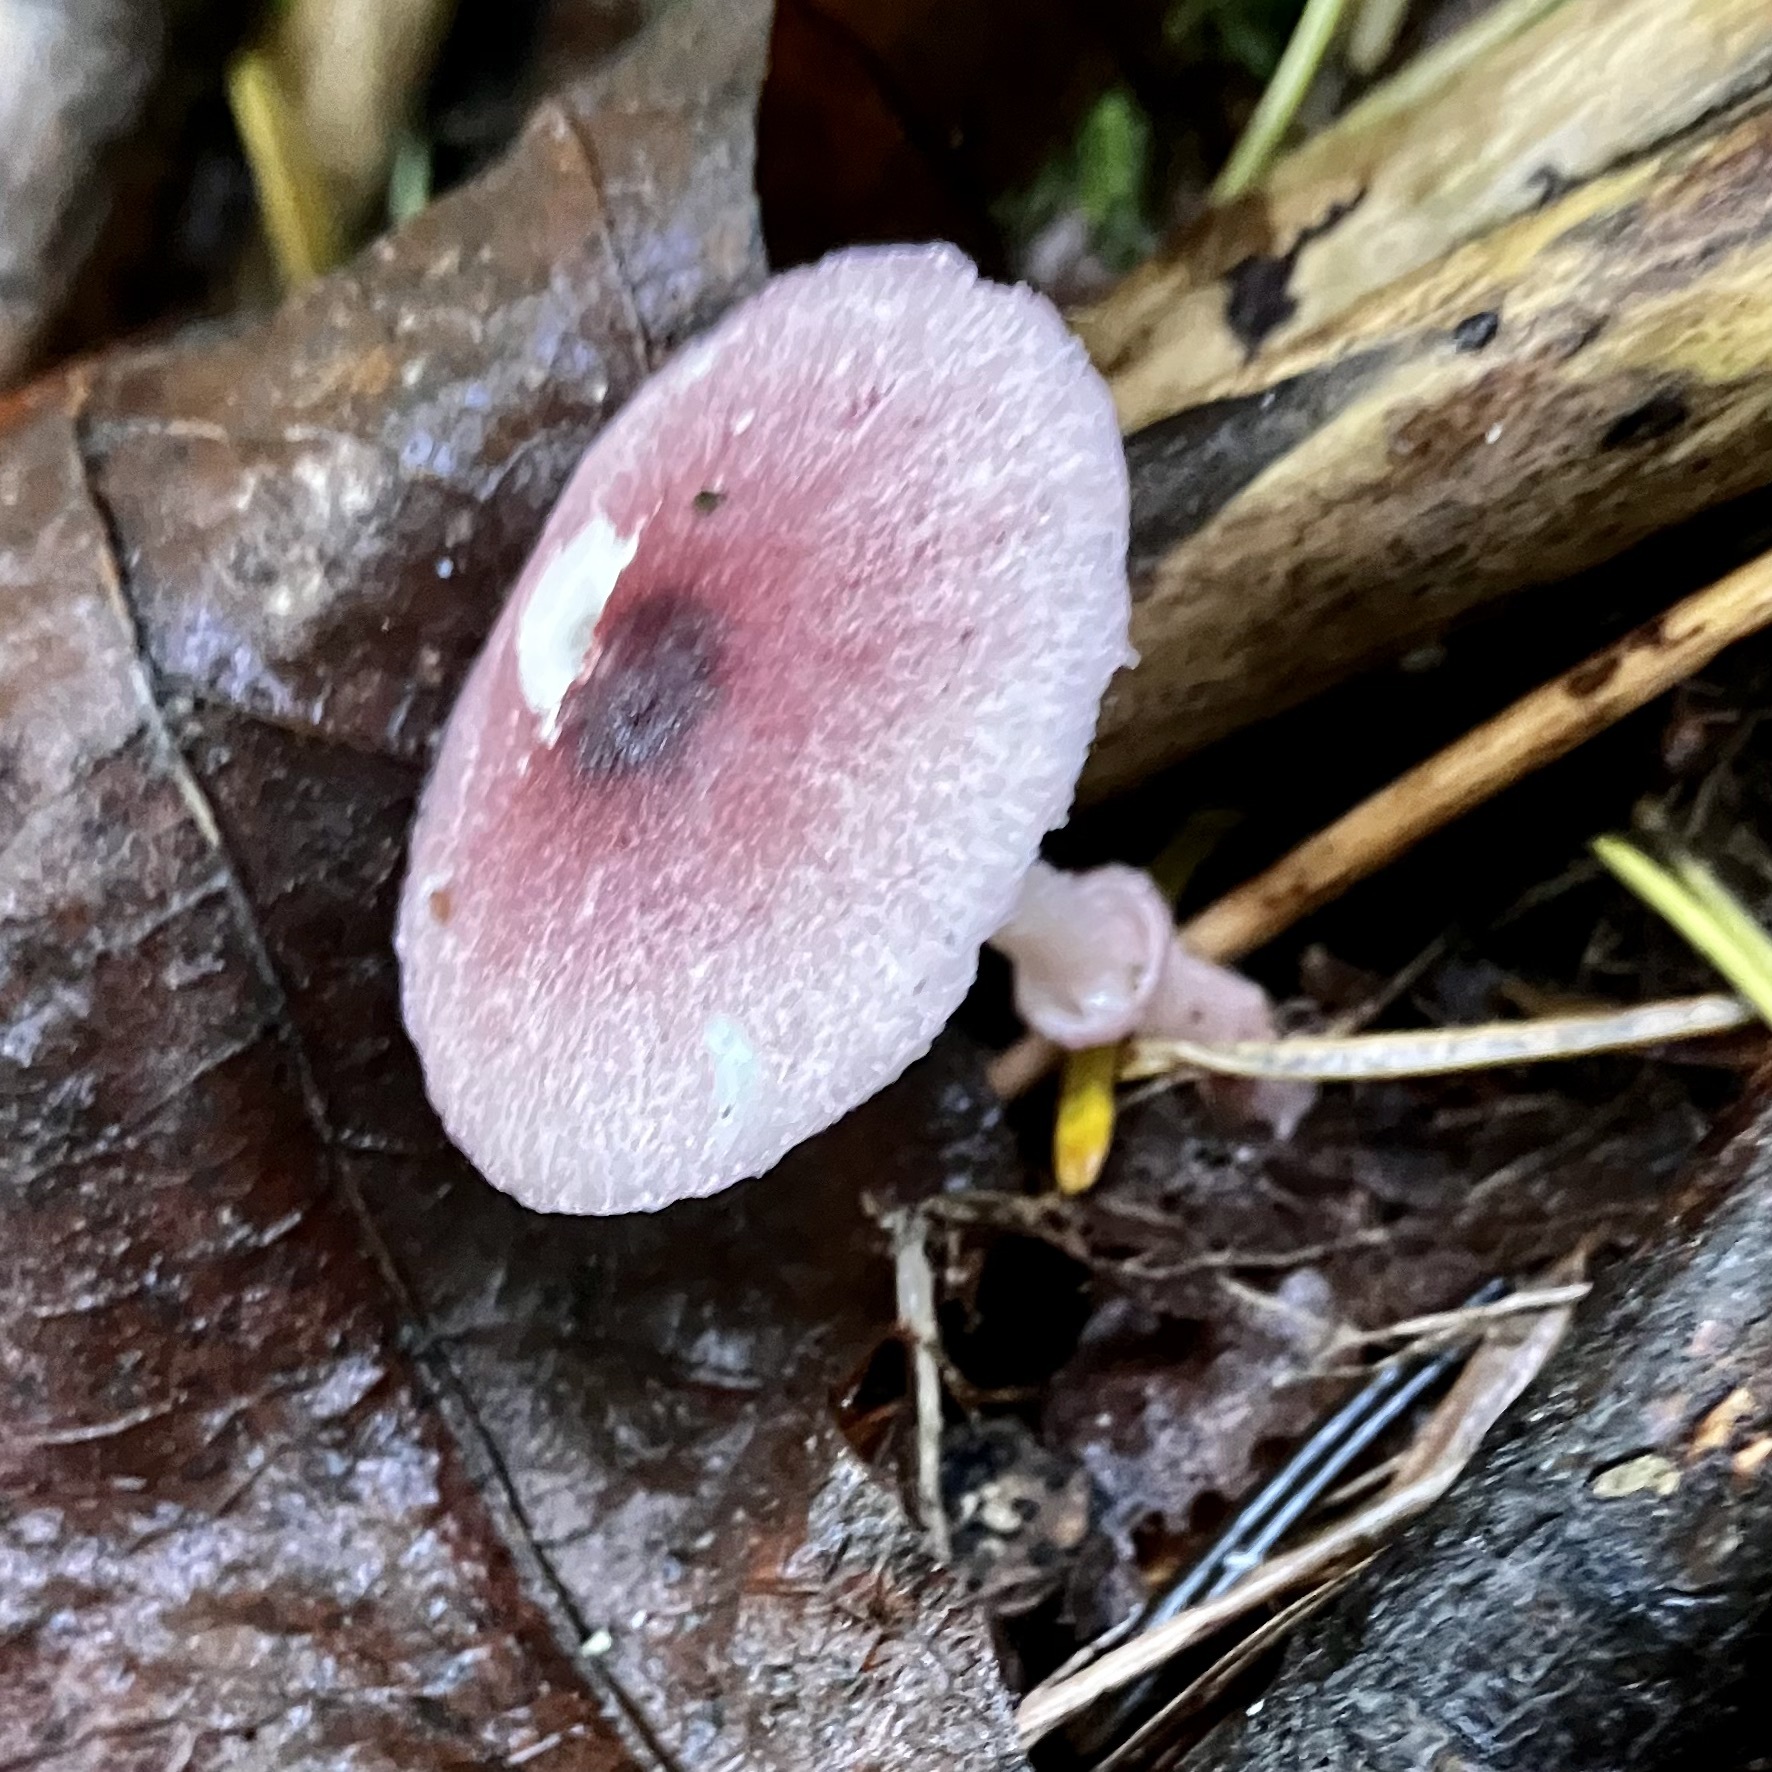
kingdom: Fungi
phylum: Basidiomycota
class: Agaricomycetes
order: Agaricales
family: Agaricaceae
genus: Leucoagaricus
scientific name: Leucoagaricus roseilividus
